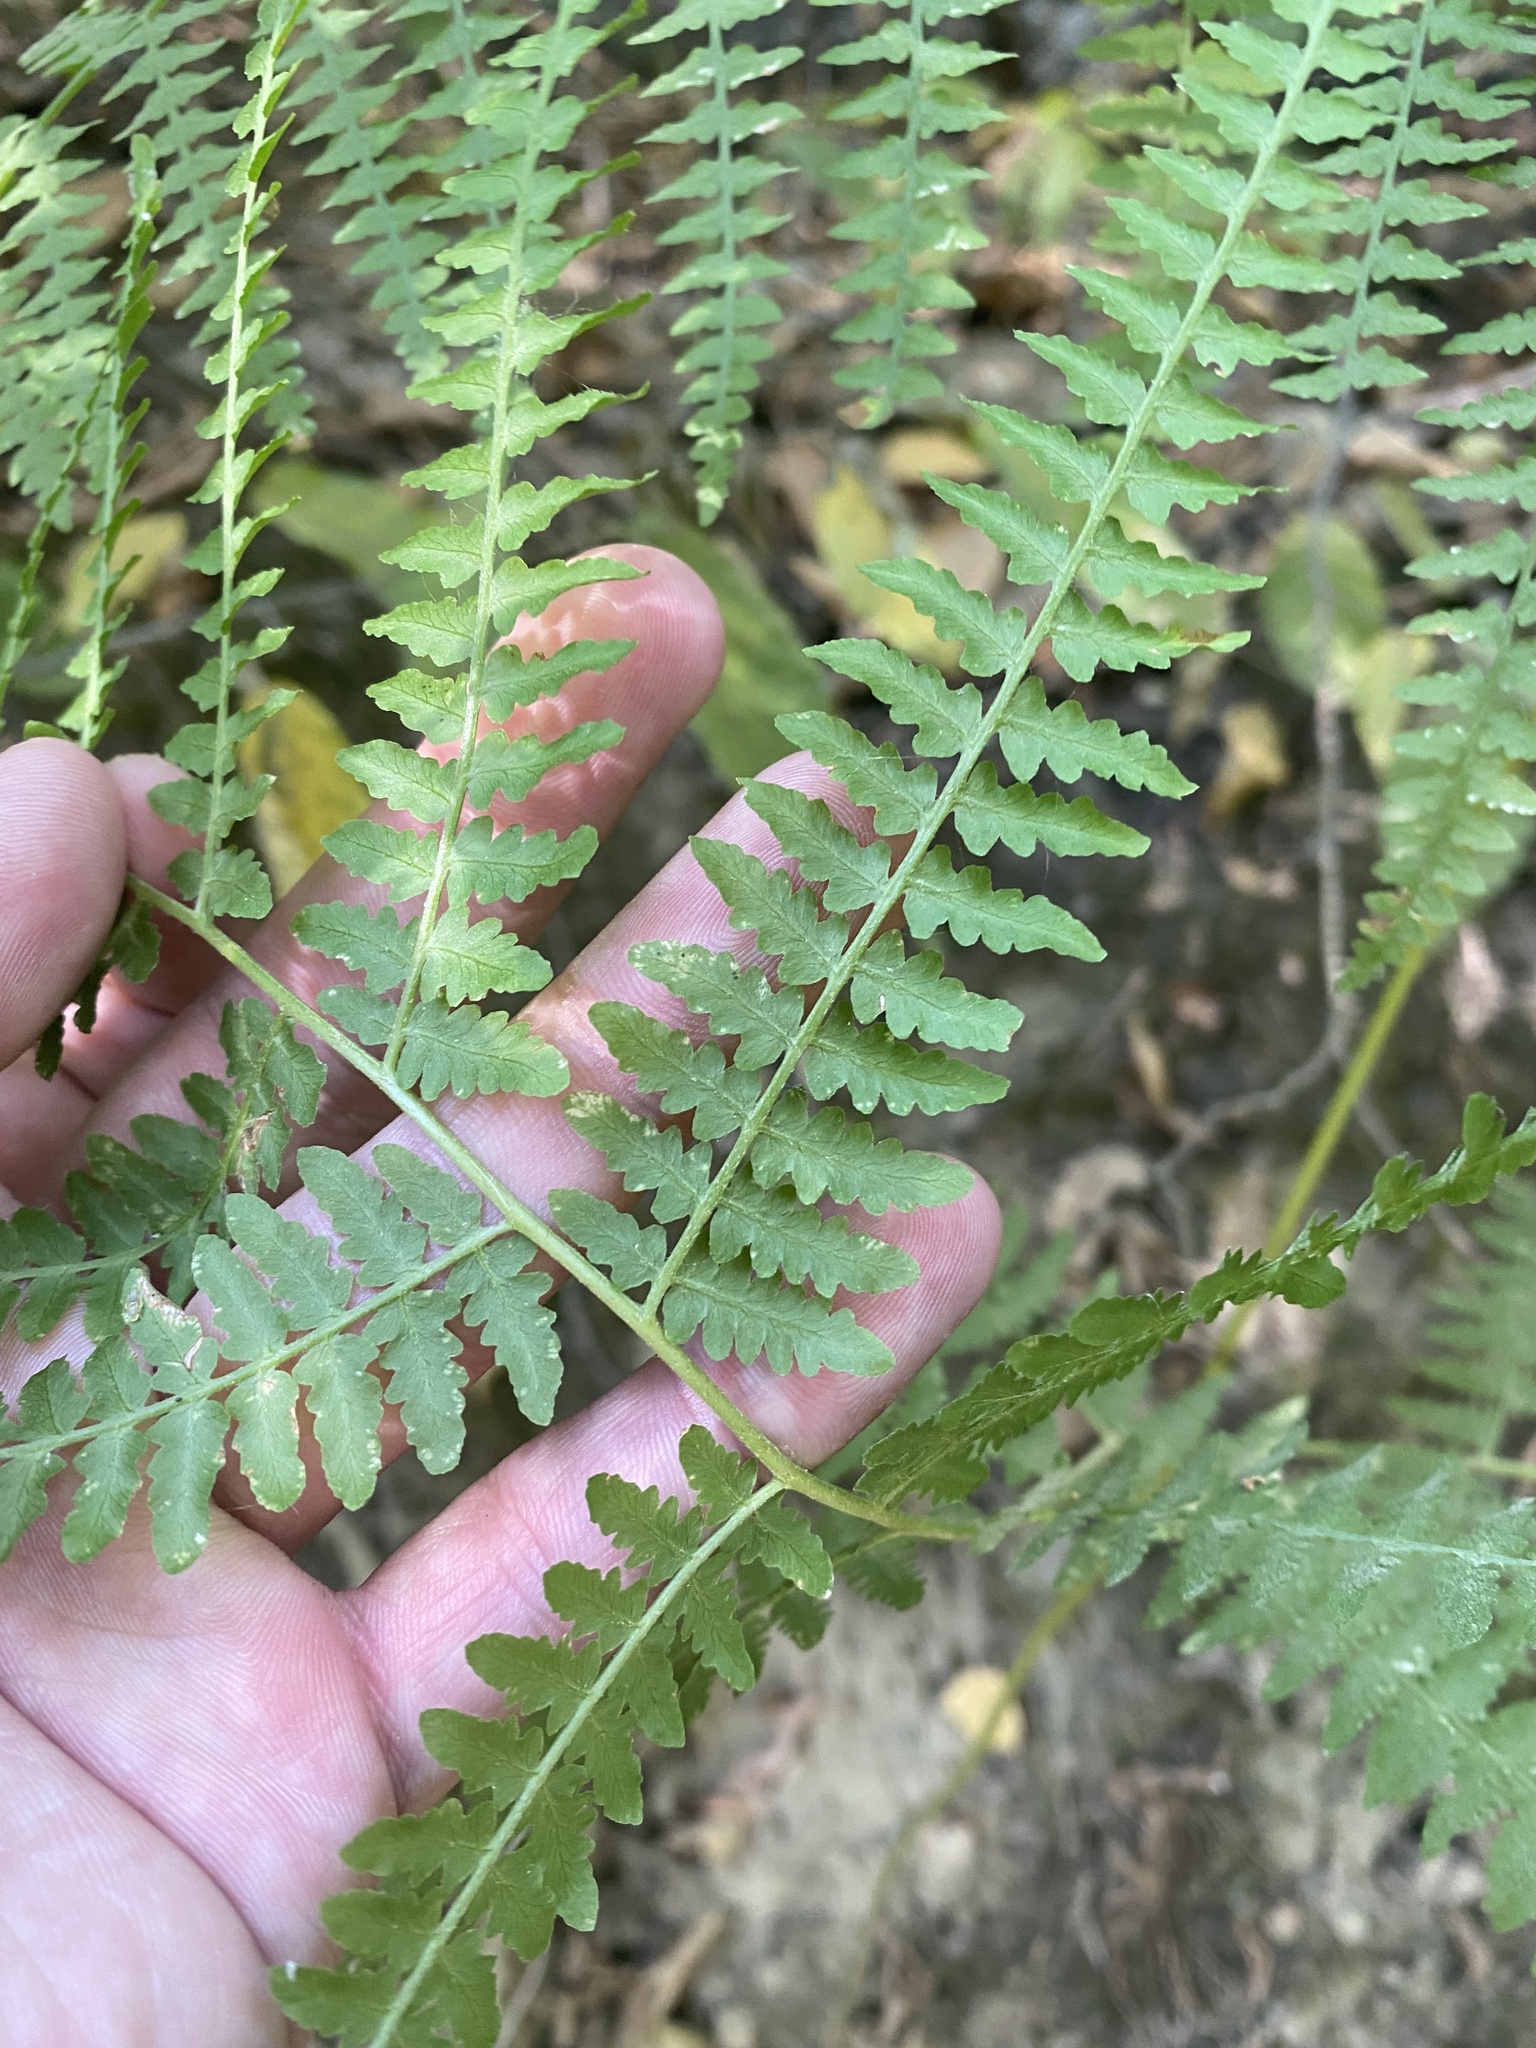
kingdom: Plantae
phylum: Tracheophyta
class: Polypodiopsida
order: Polypodiales
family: Dennstaedtiaceae
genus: Pteridium
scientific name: Pteridium tauricum
